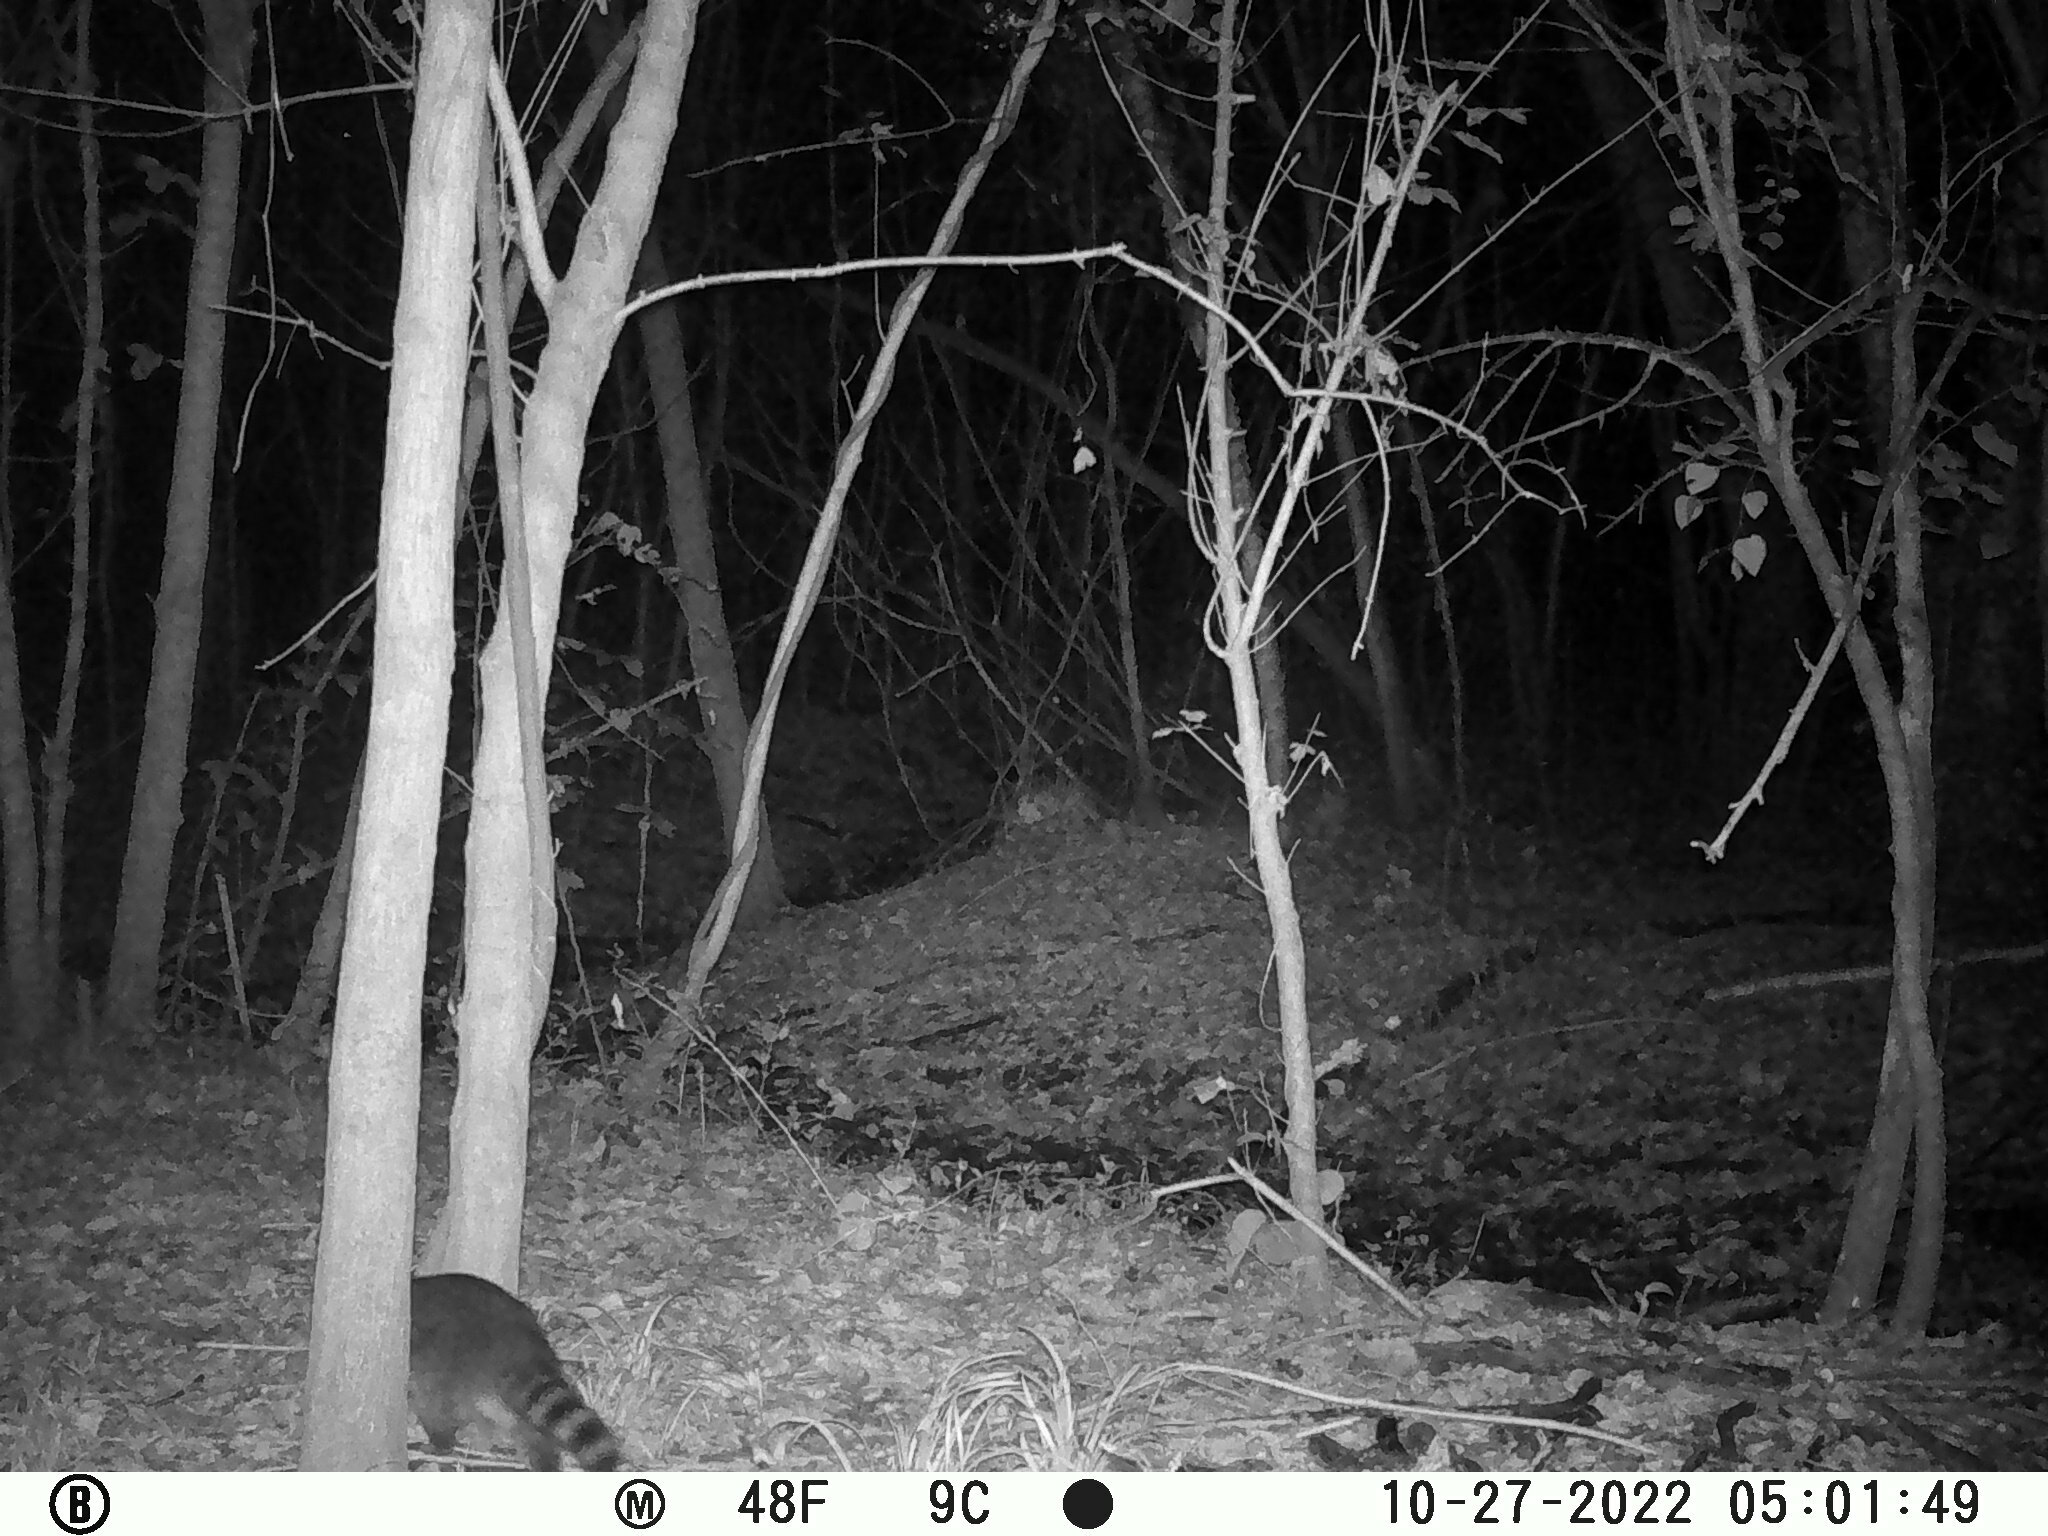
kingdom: Animalia
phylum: Chordata
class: Mammalia
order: Carnivora
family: Procyonidae
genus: Procyon
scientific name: Procyon lotor
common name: Raccoon
